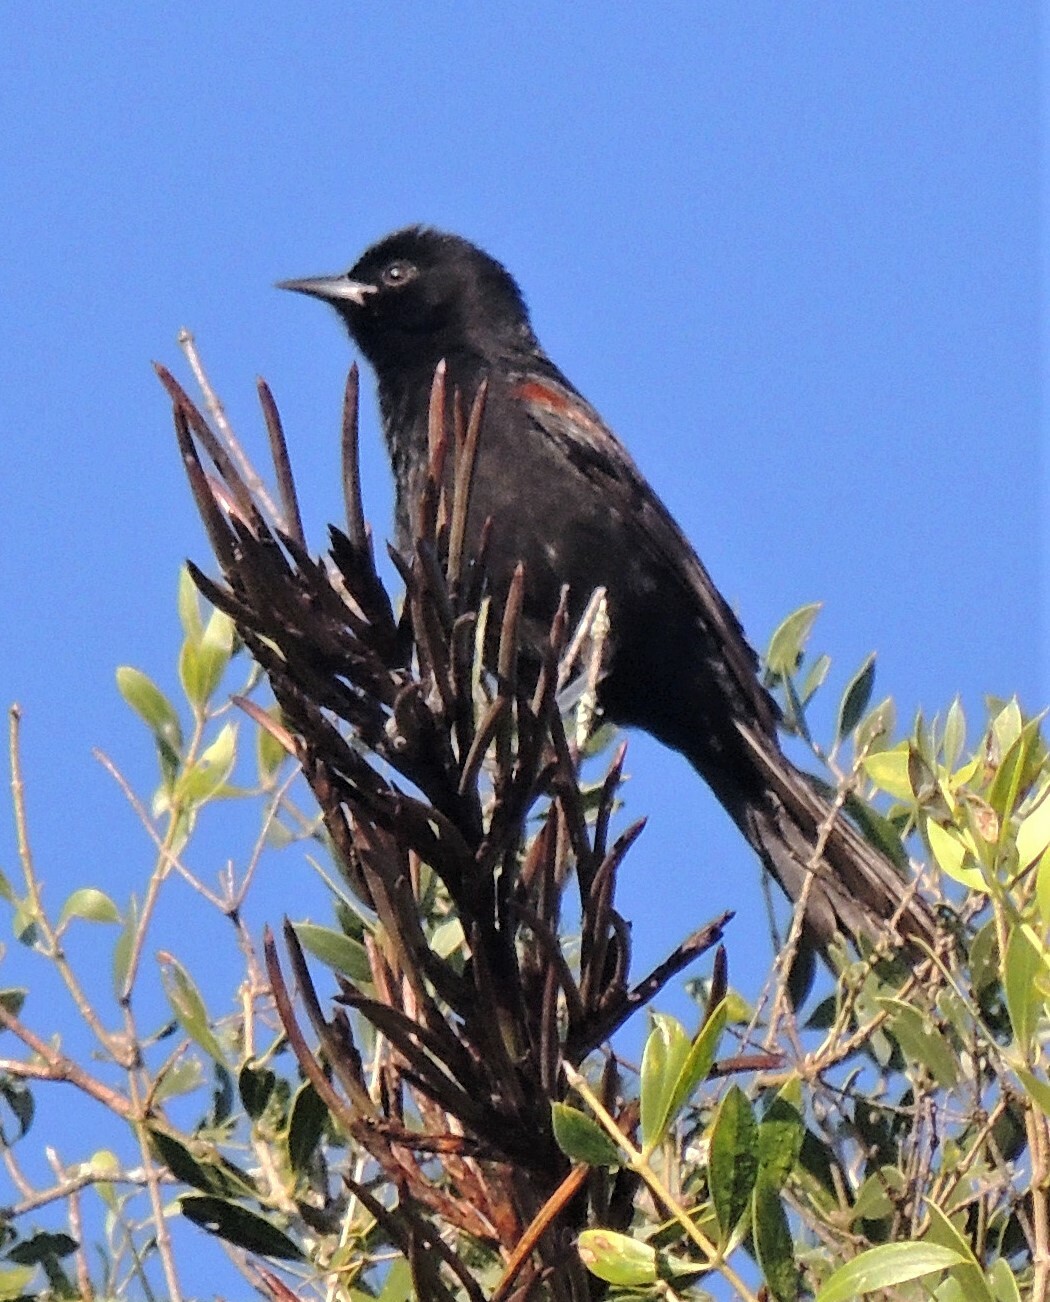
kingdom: Animalia
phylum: Chordata
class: Aves
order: Passeriformes
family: Icteridae
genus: Icterus
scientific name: Icterus cayanensis
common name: Epaulet oriole
